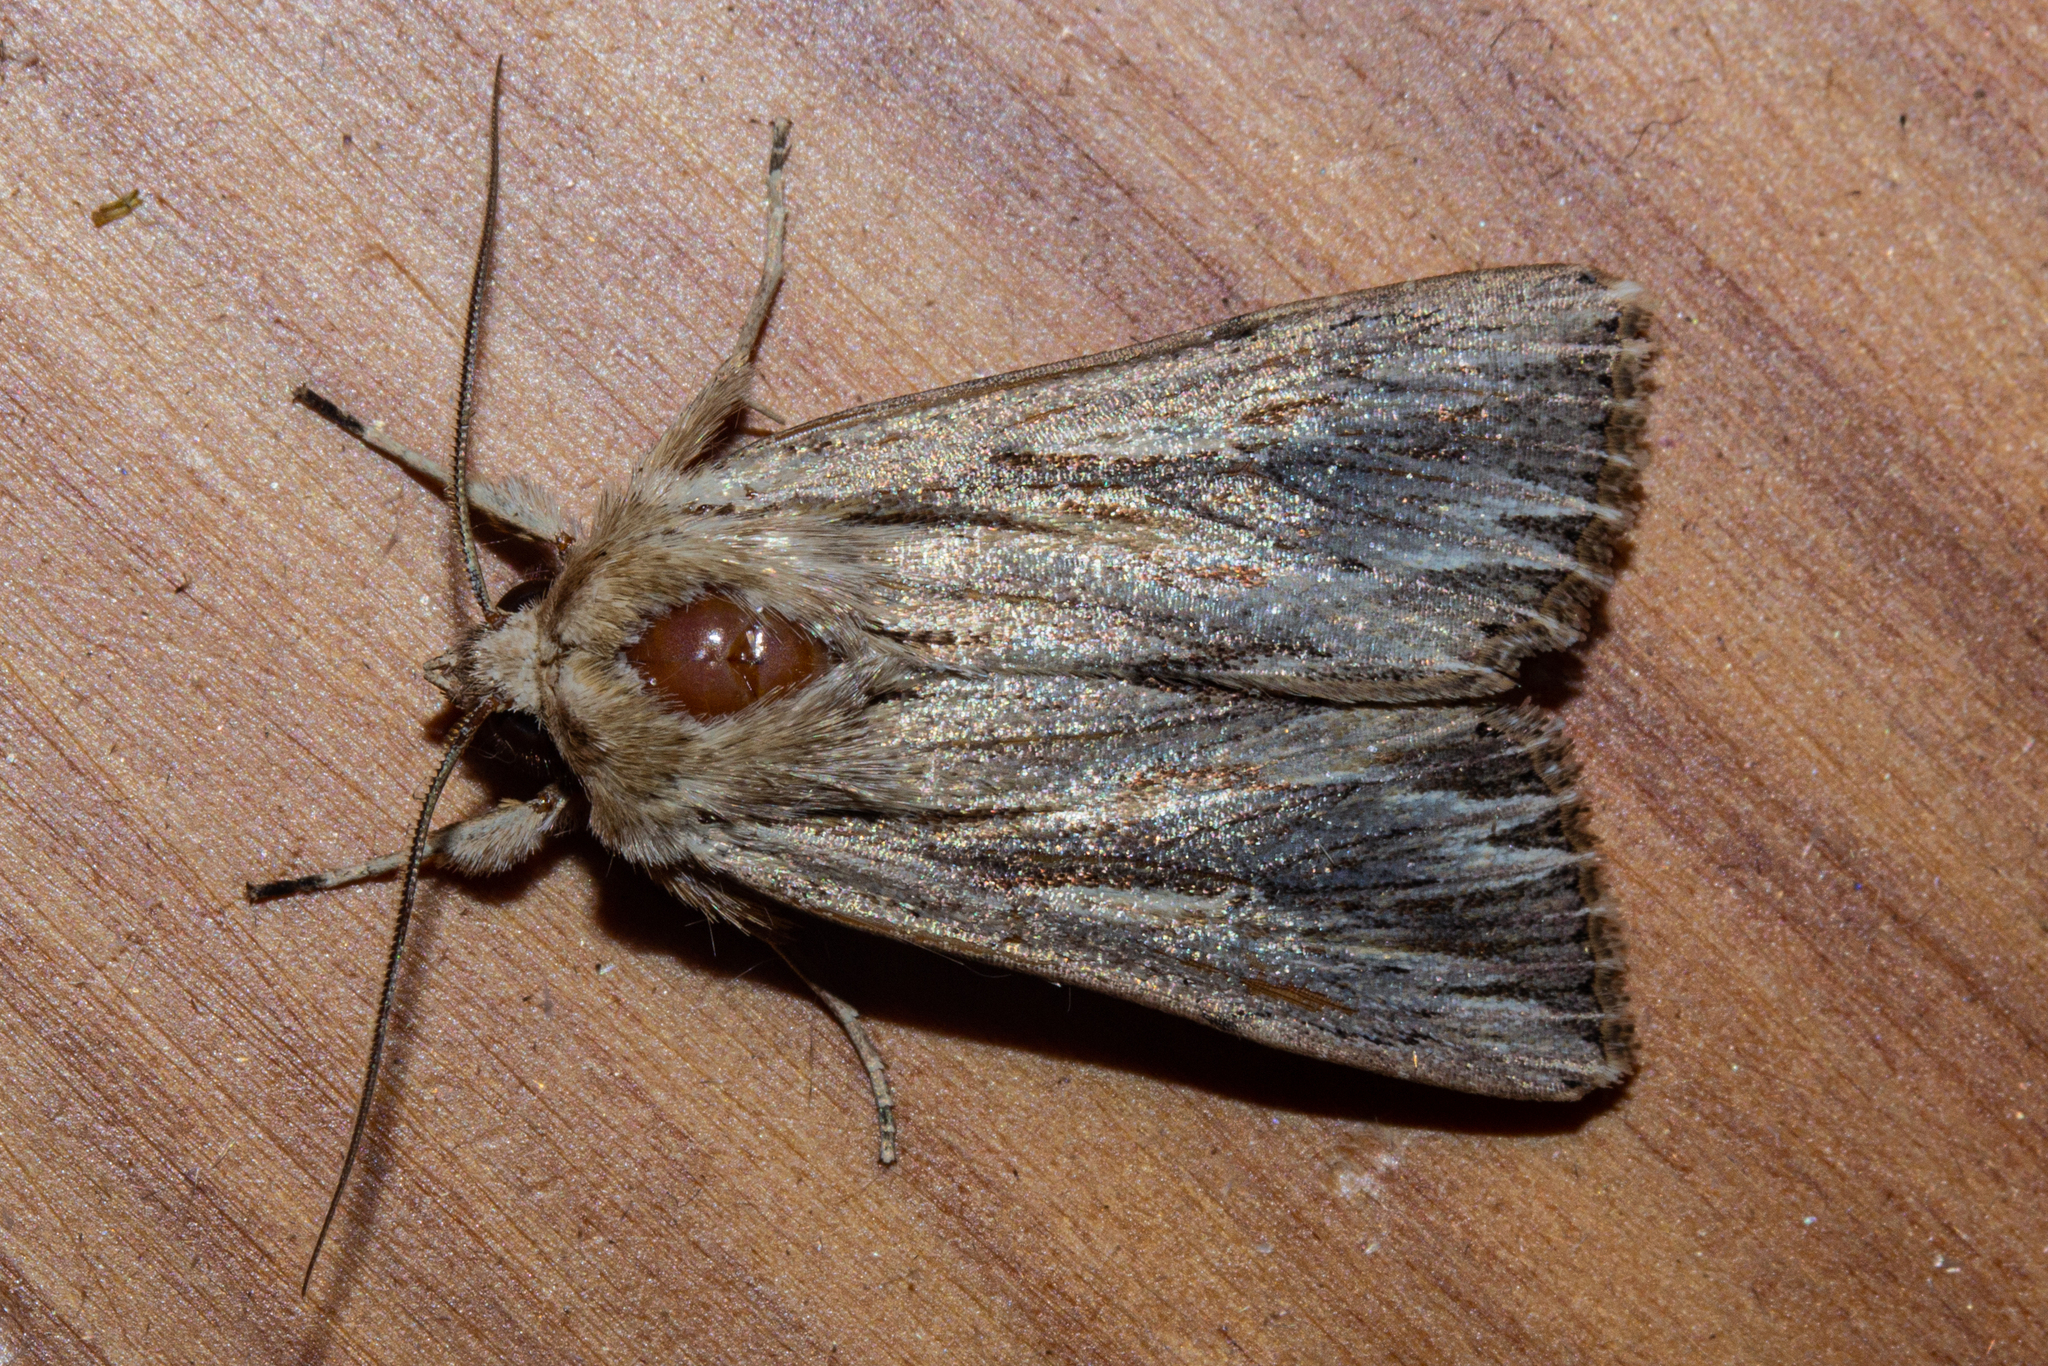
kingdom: Animalia
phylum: Arthropoda
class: Insecta
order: Lepidoptera
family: Noctuidae
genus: Persectania
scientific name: Persectania aversa
